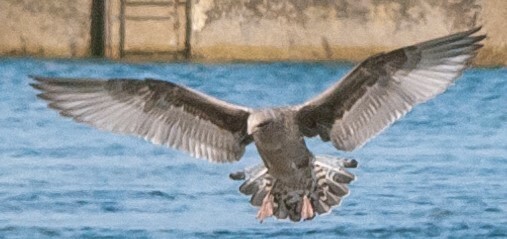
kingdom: Animalia
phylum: Chordata
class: Aves
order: Charadriiformes
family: Laridae
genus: Larus
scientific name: Larus argentatus
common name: Herring gull
